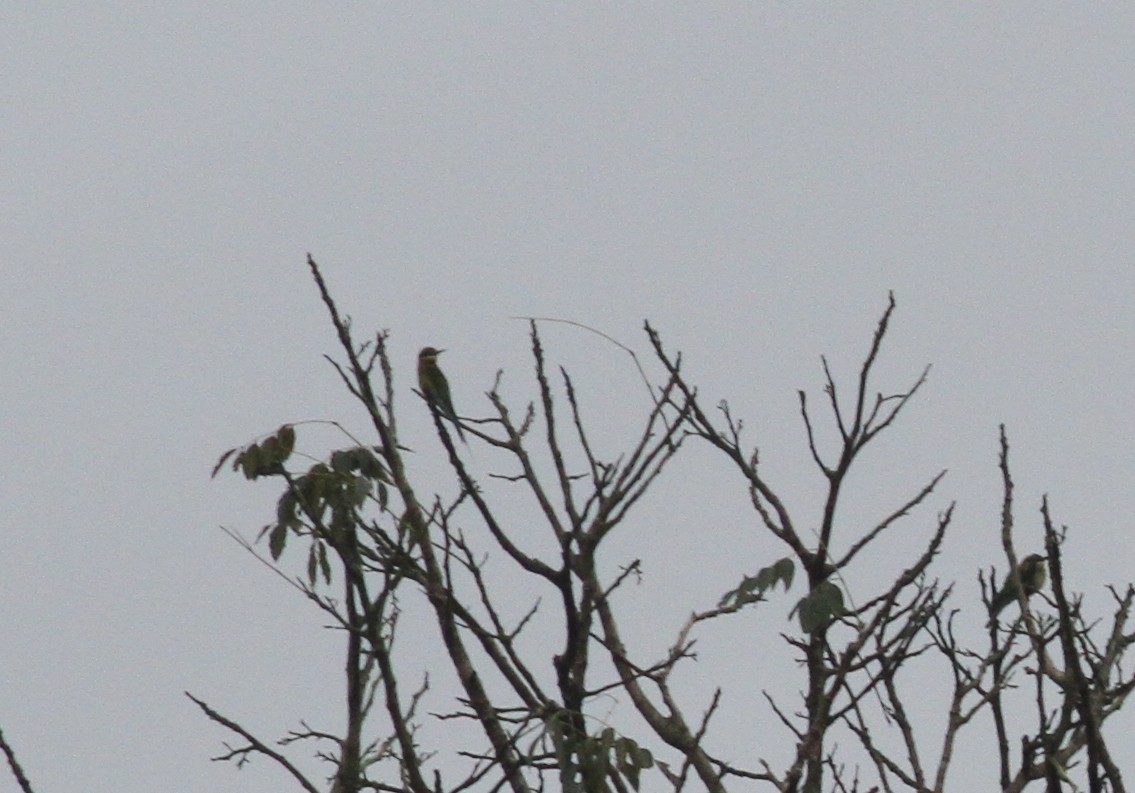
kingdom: Animalia
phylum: Chordata
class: Aves
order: Coraciiformes
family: Meropidae
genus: Merops
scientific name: Merops leschenaulti
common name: Chestnut-headed bee-eater
